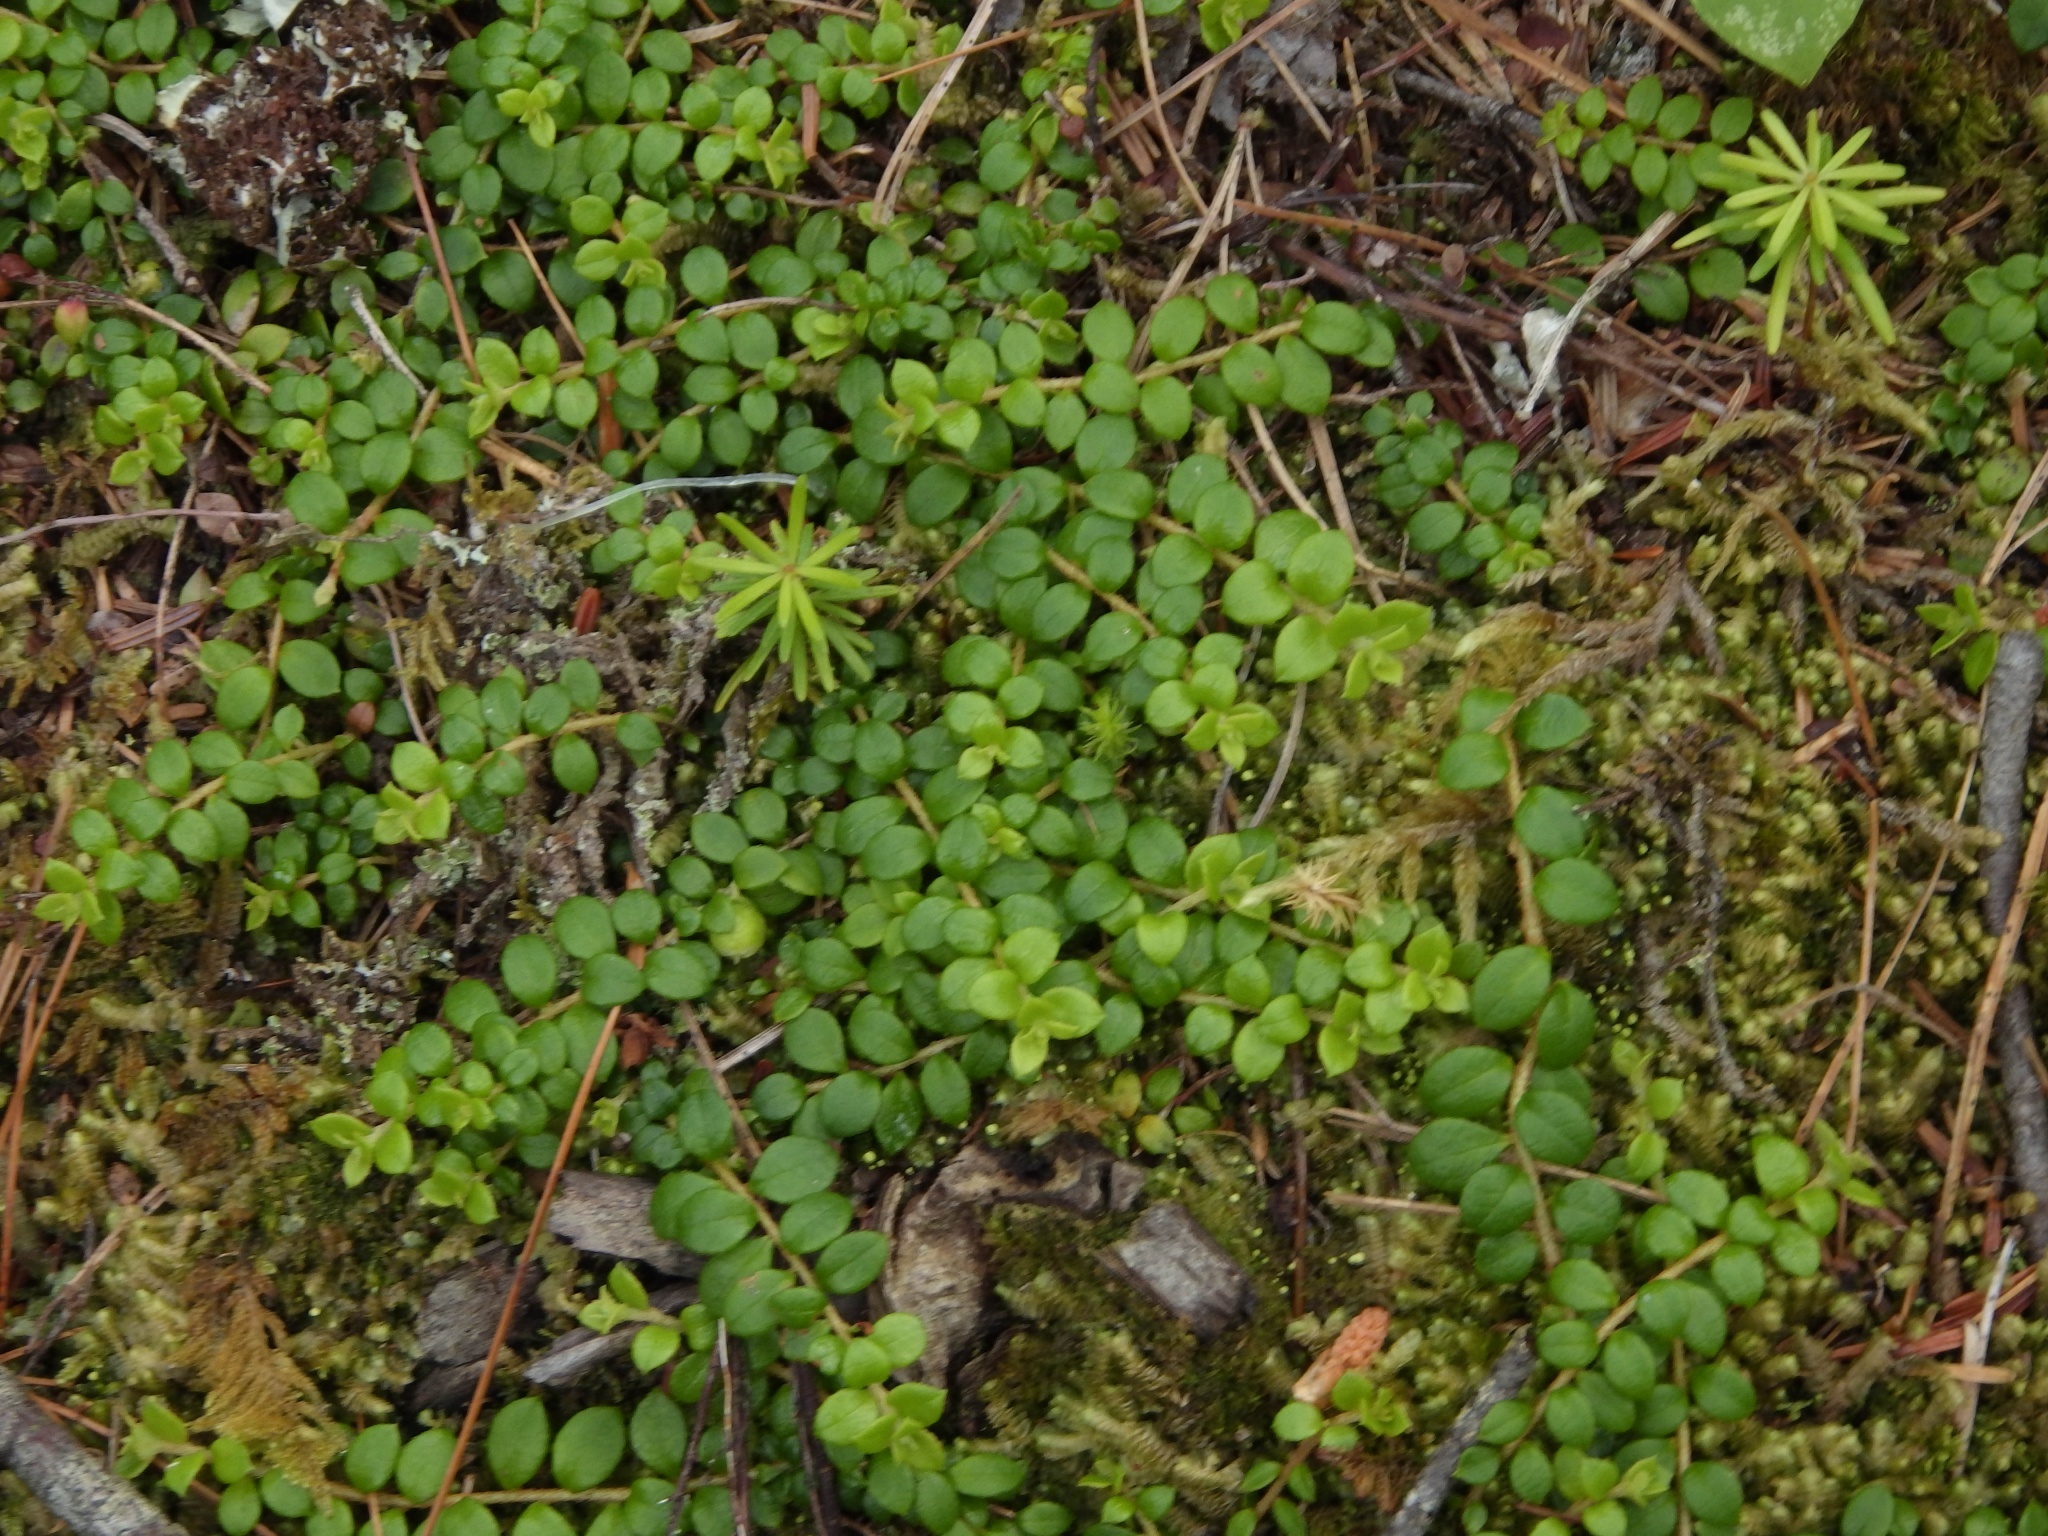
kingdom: Plantae
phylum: Tracheophyta
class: Magnoliopsida
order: Ericales
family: Ericaceae
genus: Gaultheria
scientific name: Gaultheria hispidula
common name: Cancer wintergreen
